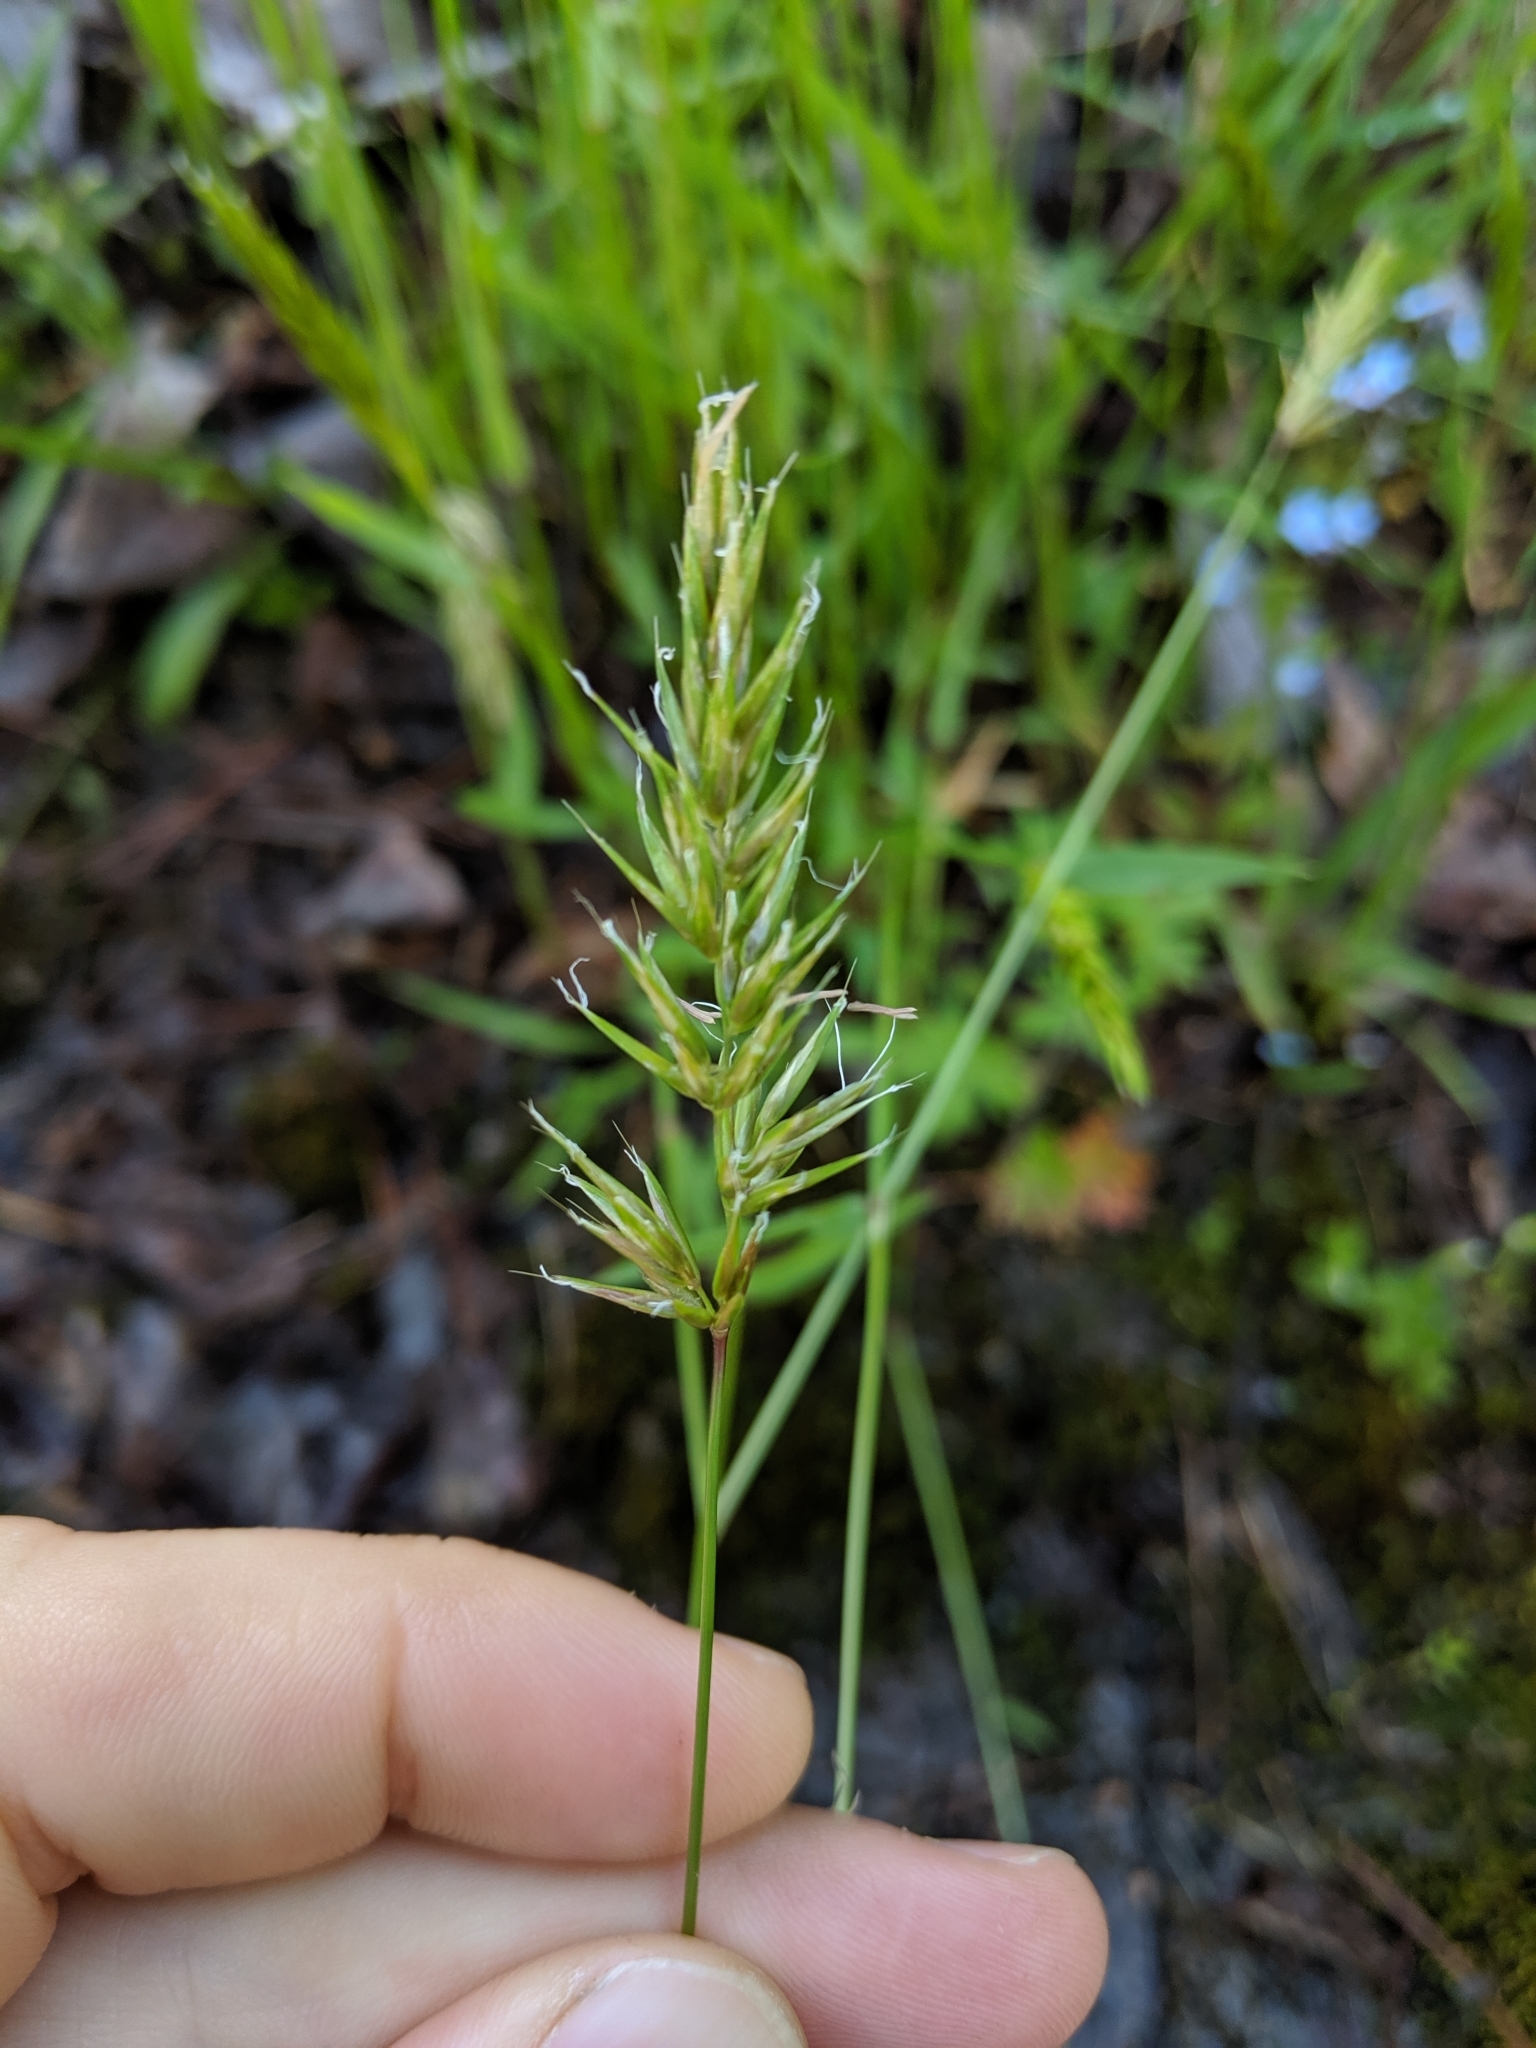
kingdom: Plantae
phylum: Tracheophyta
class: Liliopsida
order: Poales
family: Poaceae
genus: Anthoxanthum
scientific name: Anthoxanthum odoratum
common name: Sweet vernalgrass
